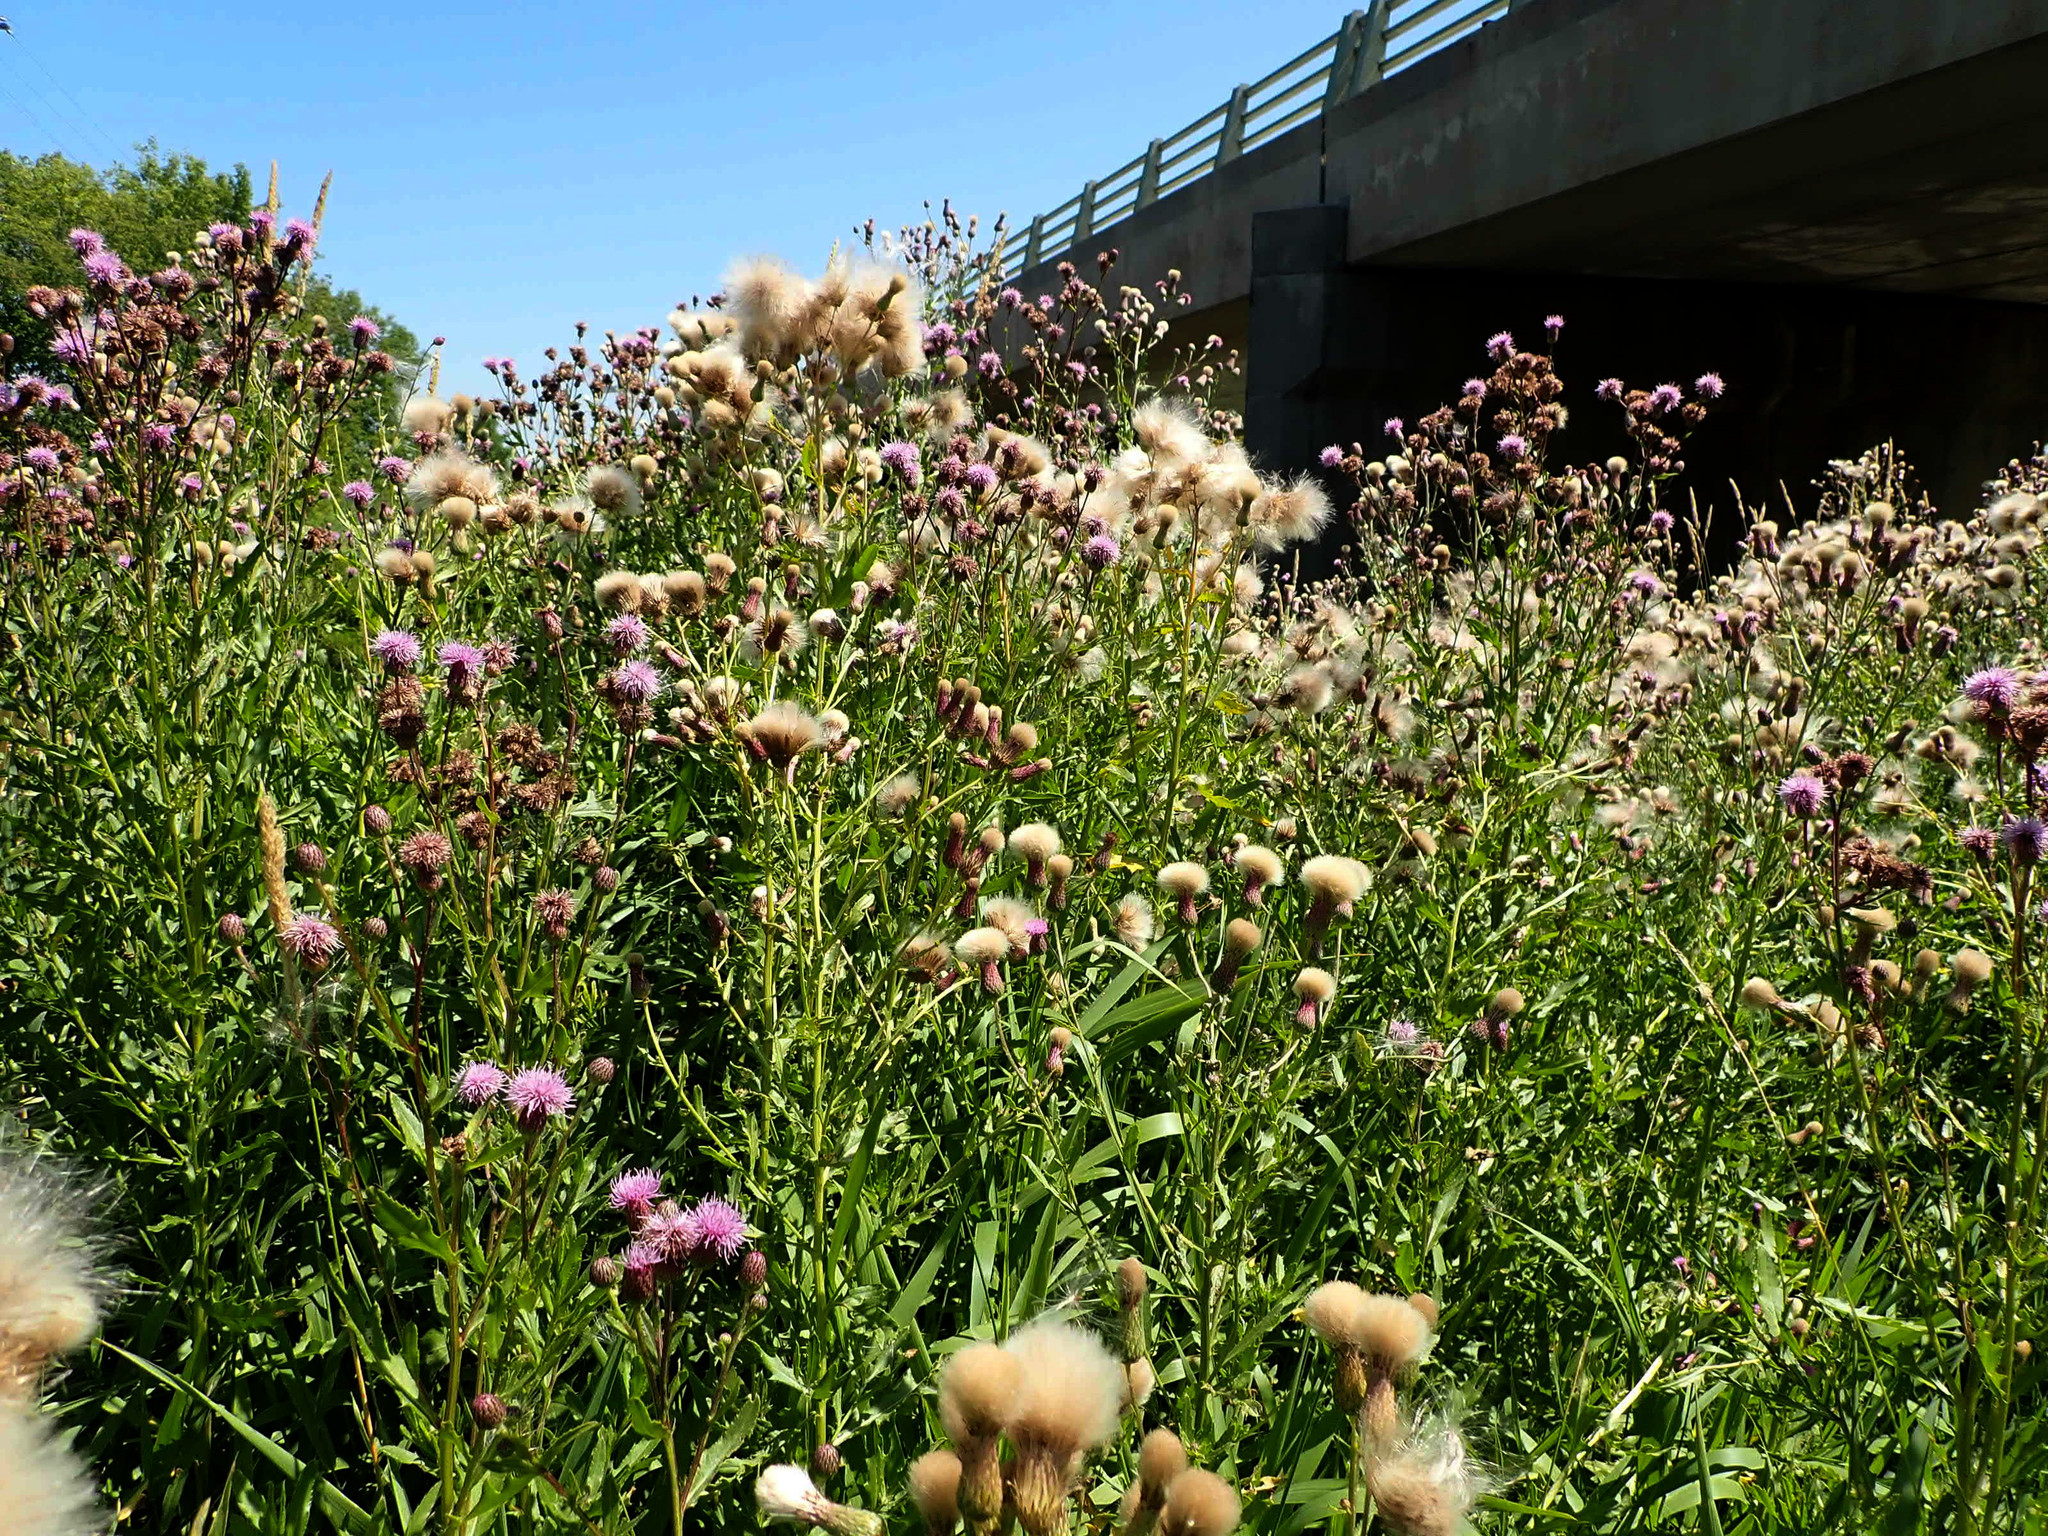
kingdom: Plantae
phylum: Tracheophyta
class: Magnoliopsida
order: Asterales
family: Asteraceae
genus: Cirsium
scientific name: Cirsium arvense
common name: Creeping thistle
